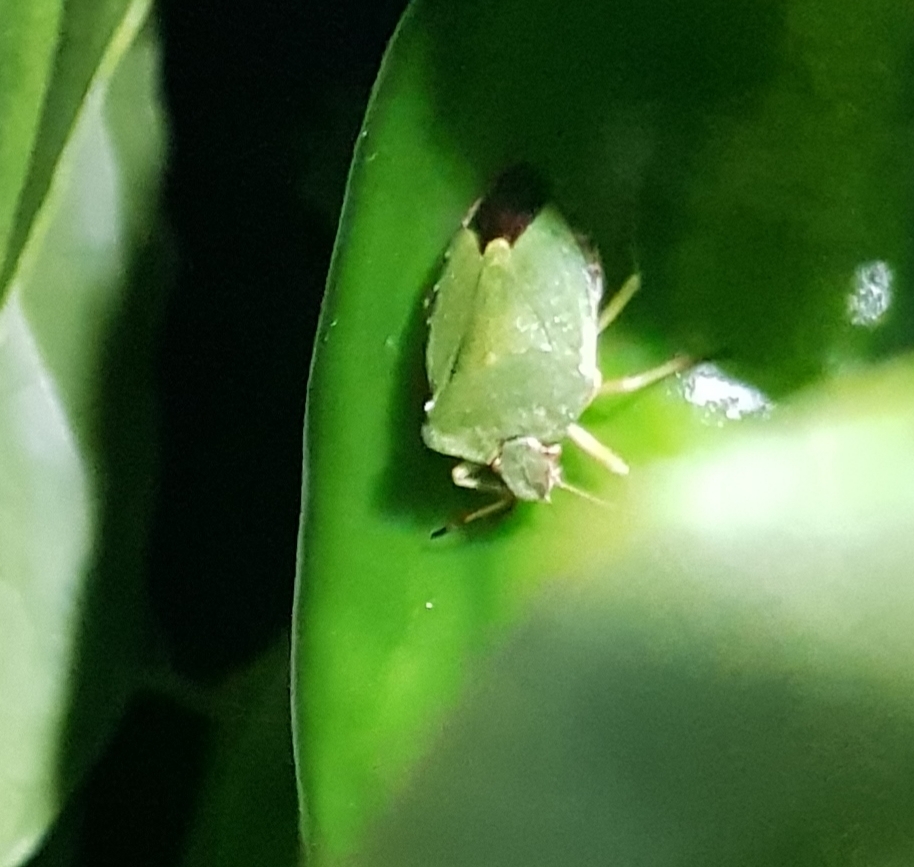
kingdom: Animalia
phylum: Arthropoda
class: Insecta
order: Hemiptera
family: Pentatomidae
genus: Palomena
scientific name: Palomena prasina
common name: Green shieldbug
